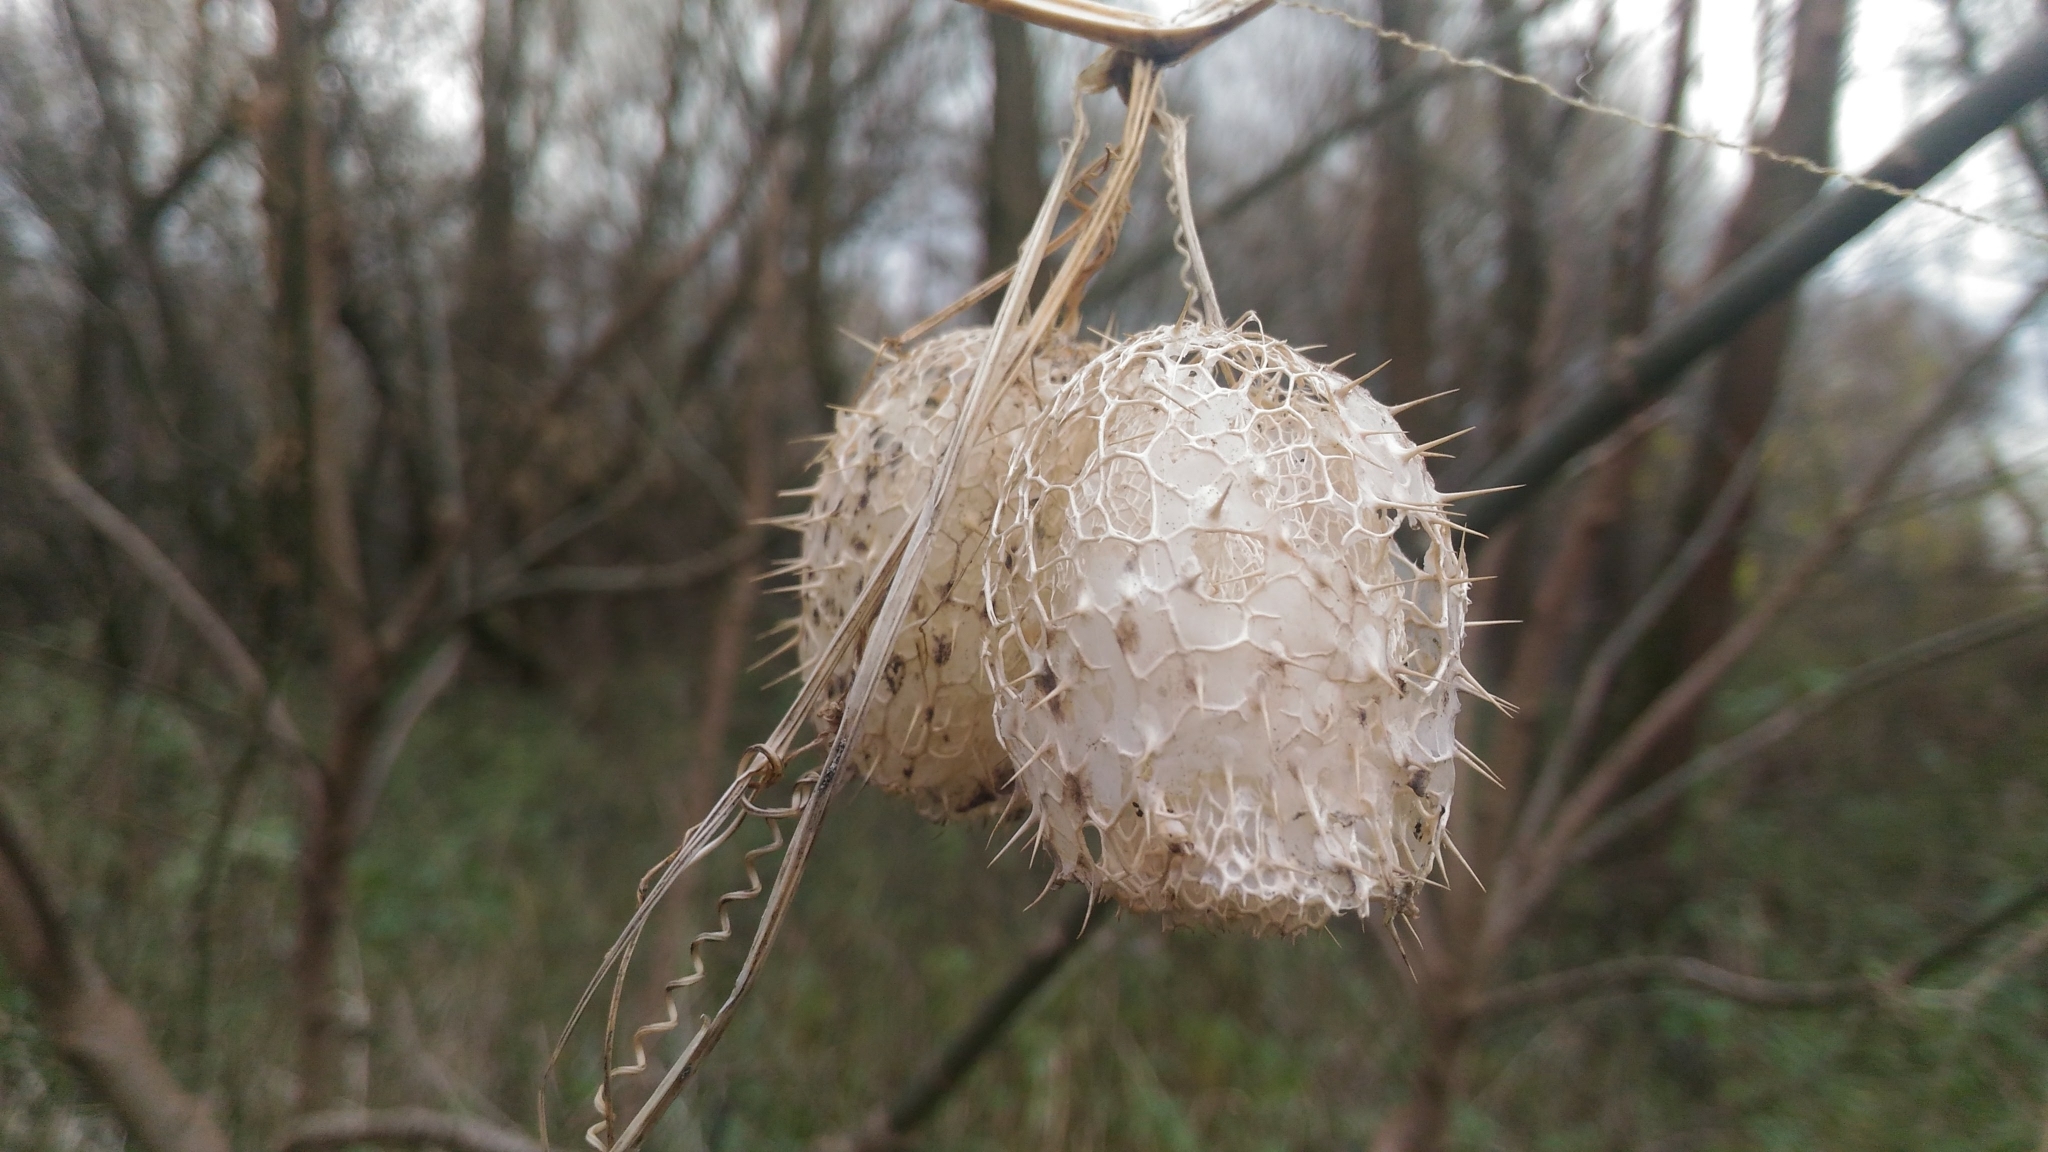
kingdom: Plantae
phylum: Tracheophyta
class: Magnoliopsida
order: Cucurbitales
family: Cucurbitaceae
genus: Echinocystis
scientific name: Echinocystis lobata
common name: Wild cucumber
